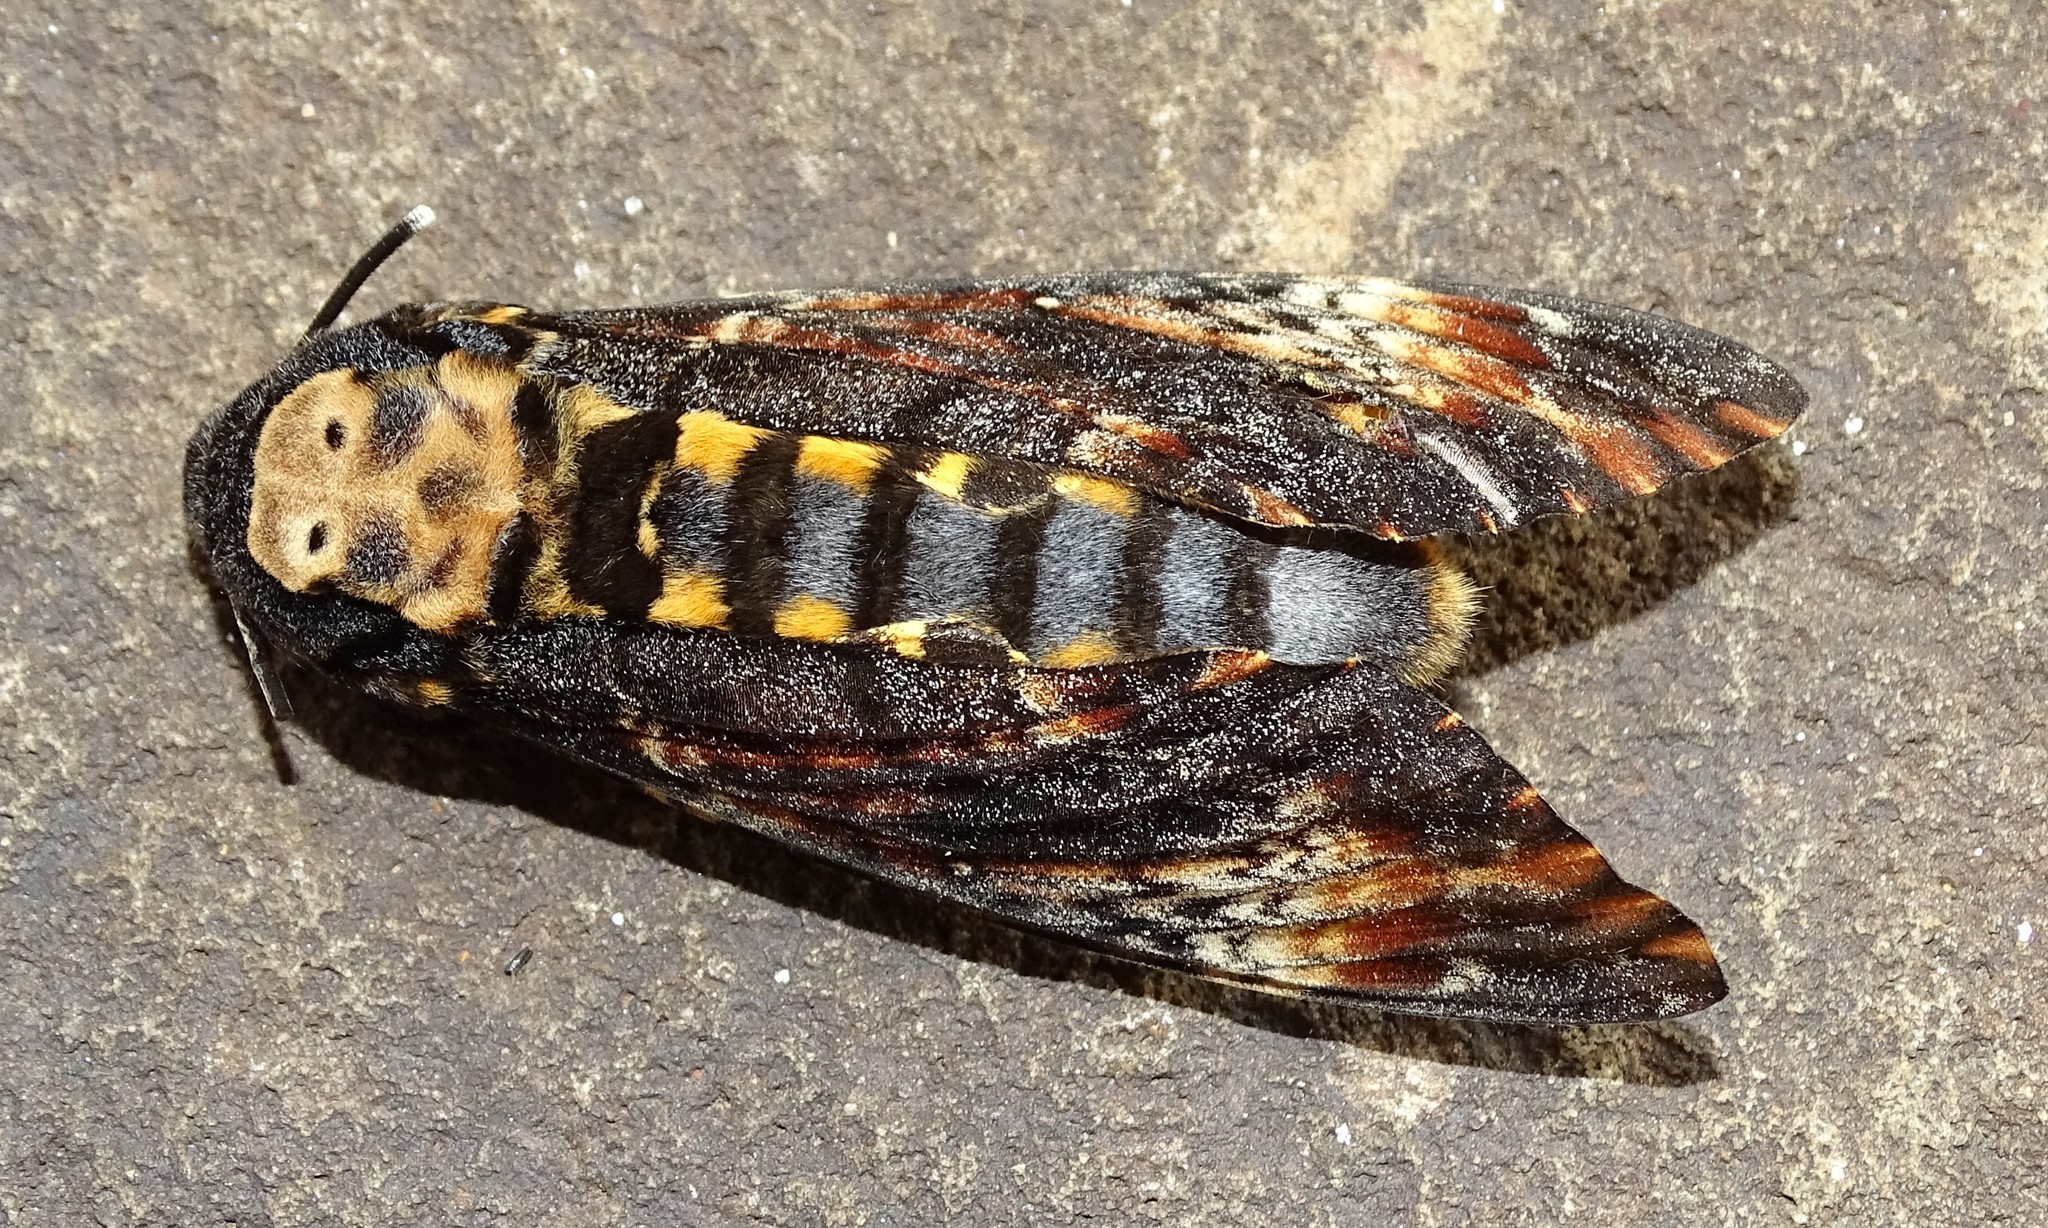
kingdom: Animalia
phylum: Arthropoda
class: Insecta
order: Lepidoptera
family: Sphingidae
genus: Acherontia
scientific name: Acherontia atropos
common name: Death's-head hawk moth
